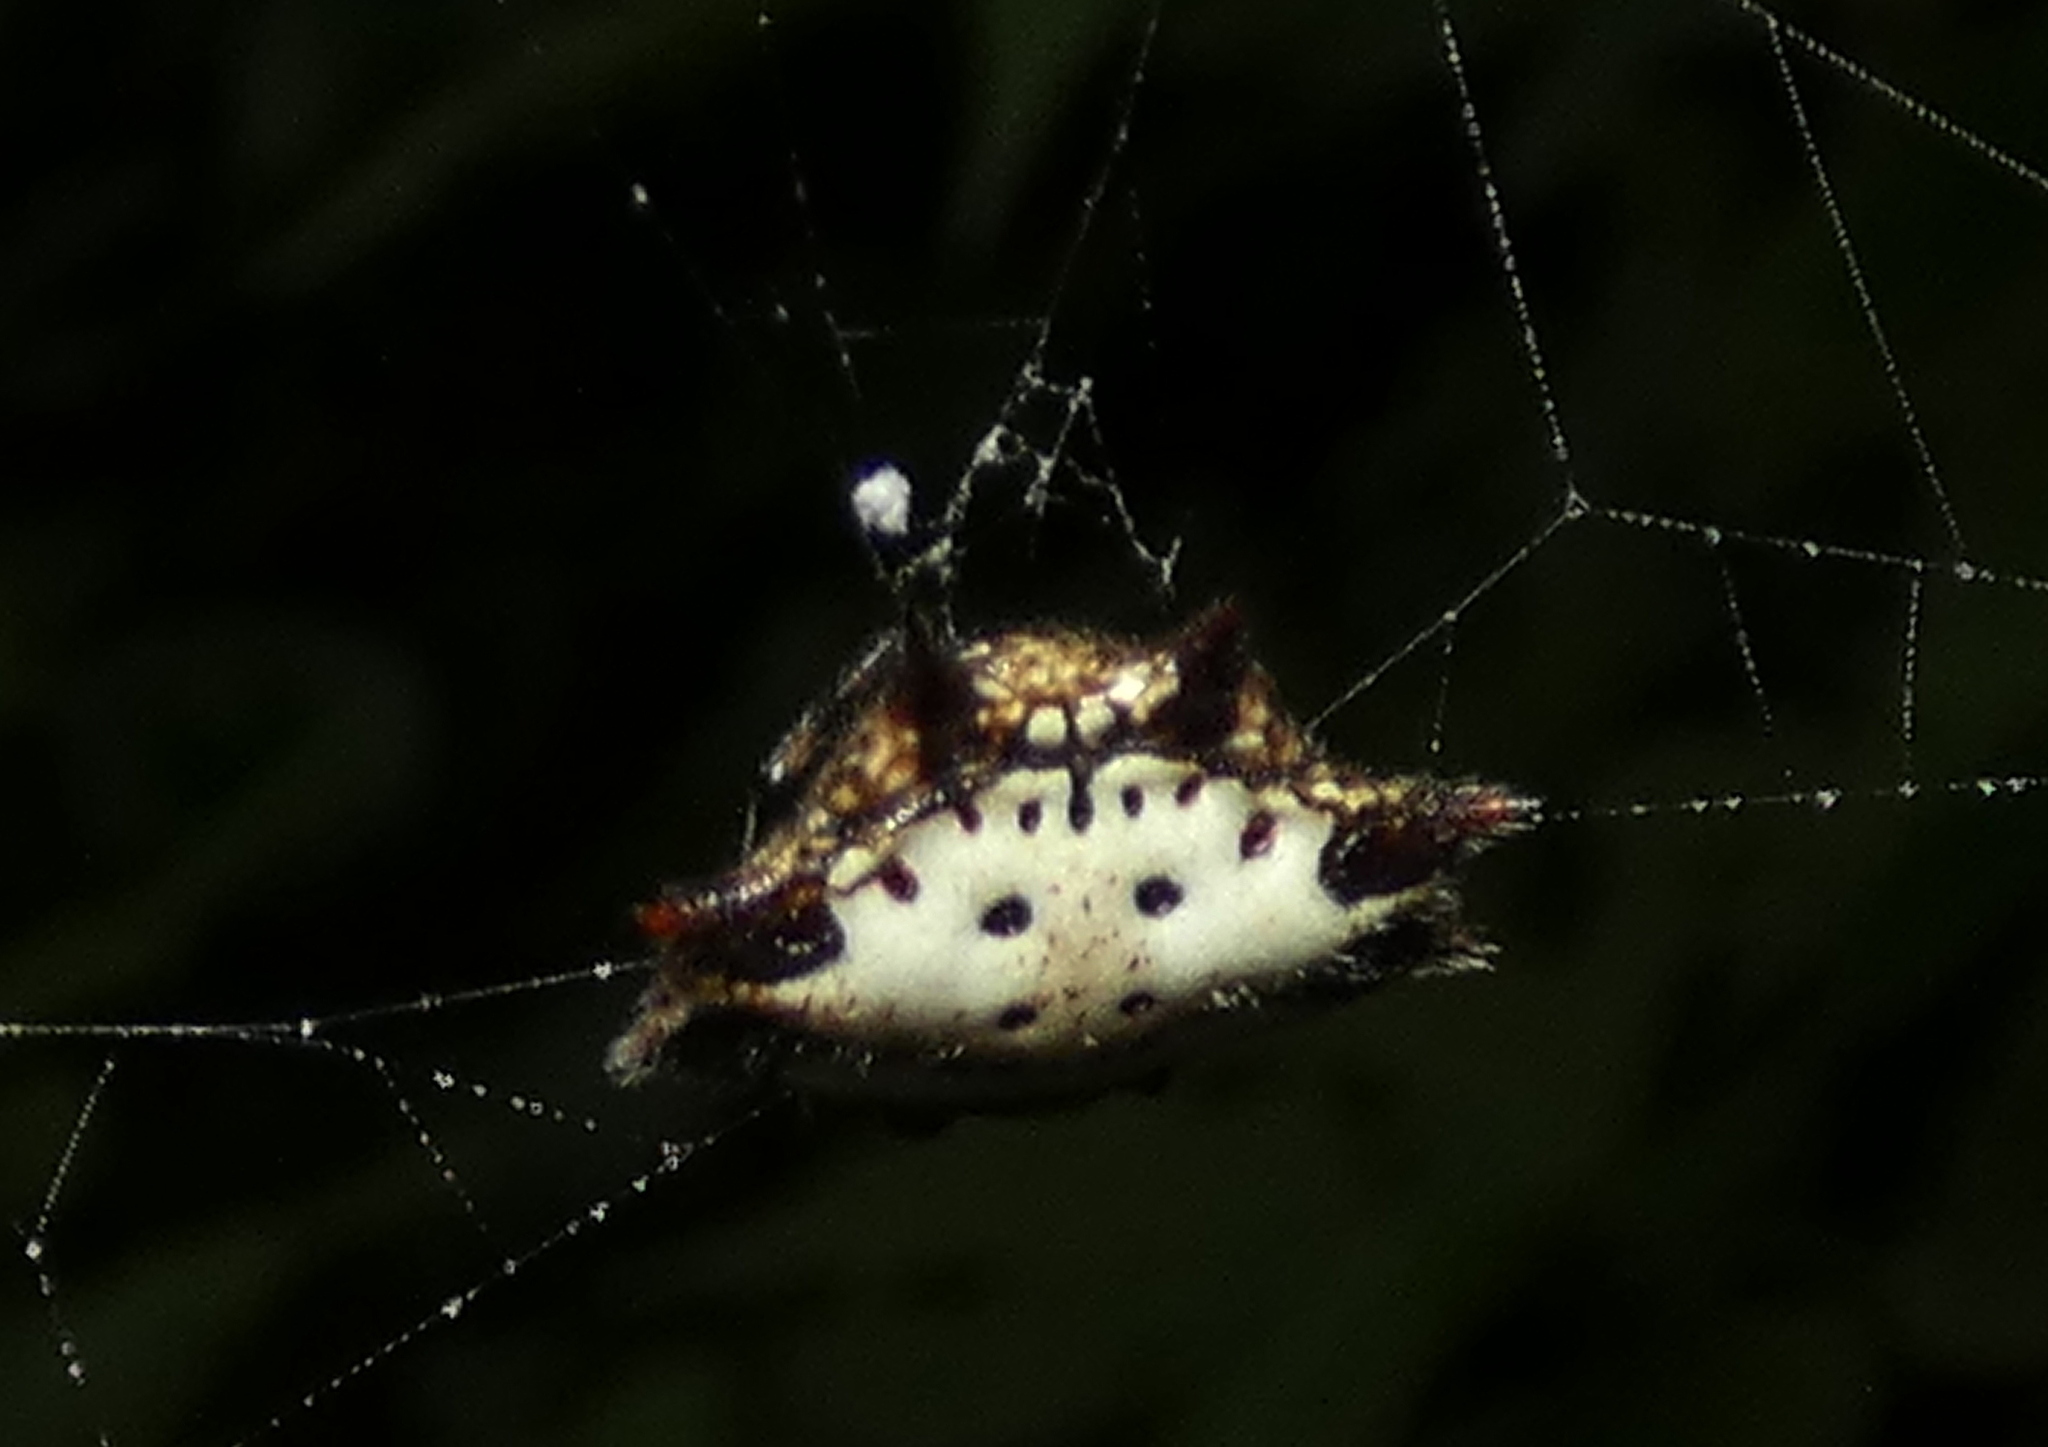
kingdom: Animalia
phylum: Arthropoda
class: Arachnida
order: Araneae
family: Araneidae
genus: Gasteracantha
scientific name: Gasteracantha cancriformis
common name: Orb weavers
